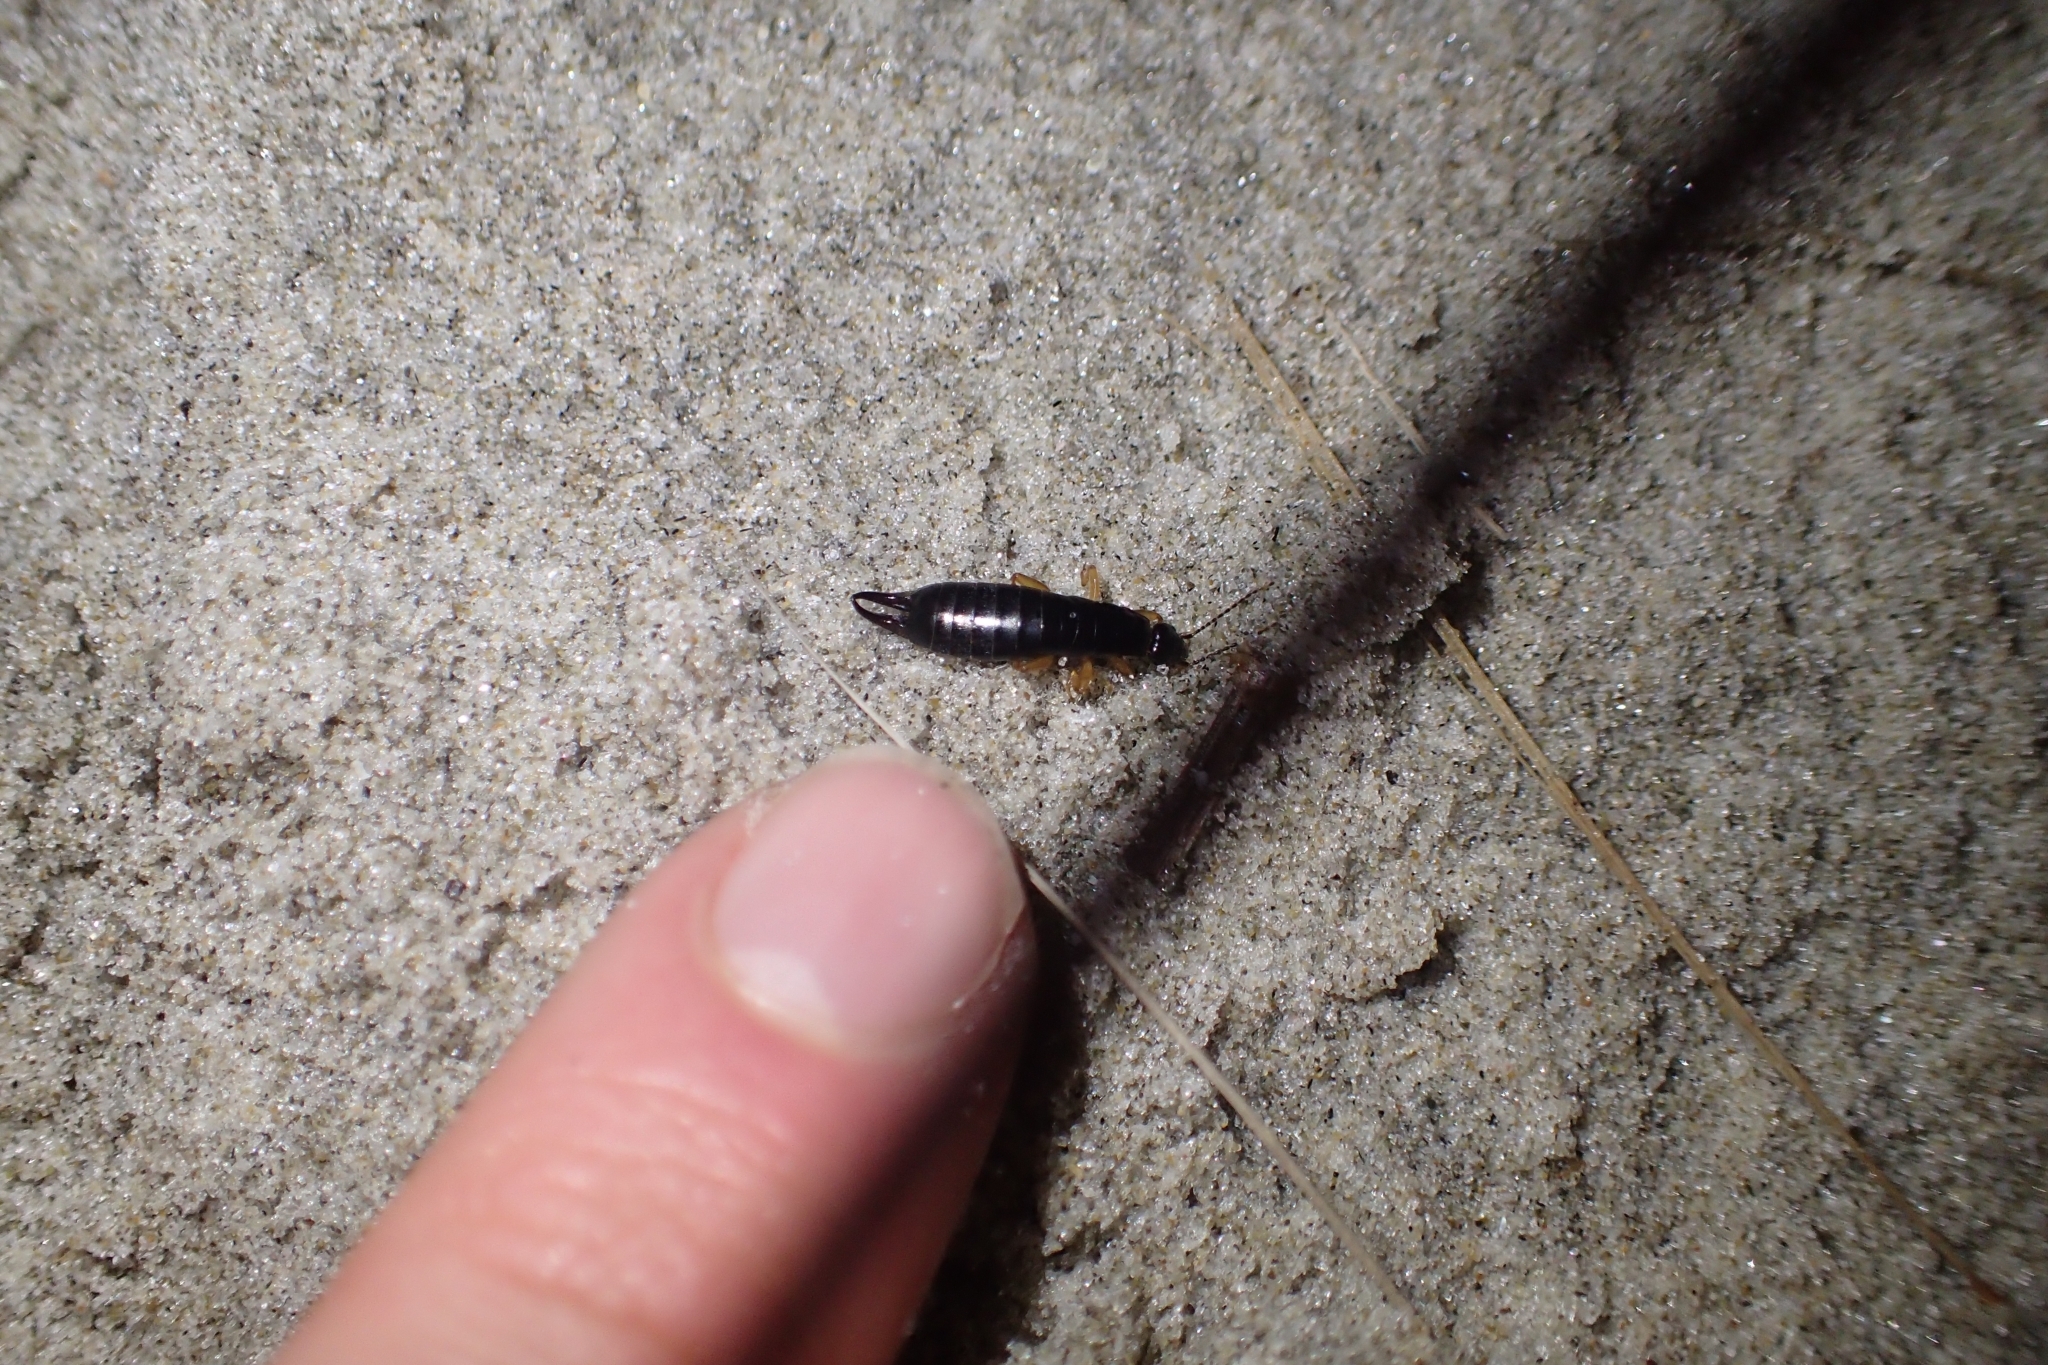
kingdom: Animalia
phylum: Arthropoda
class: Insecta
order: Dermaptera
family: Anisolabididae
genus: Anisolabis
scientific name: Anisolabis littorea
